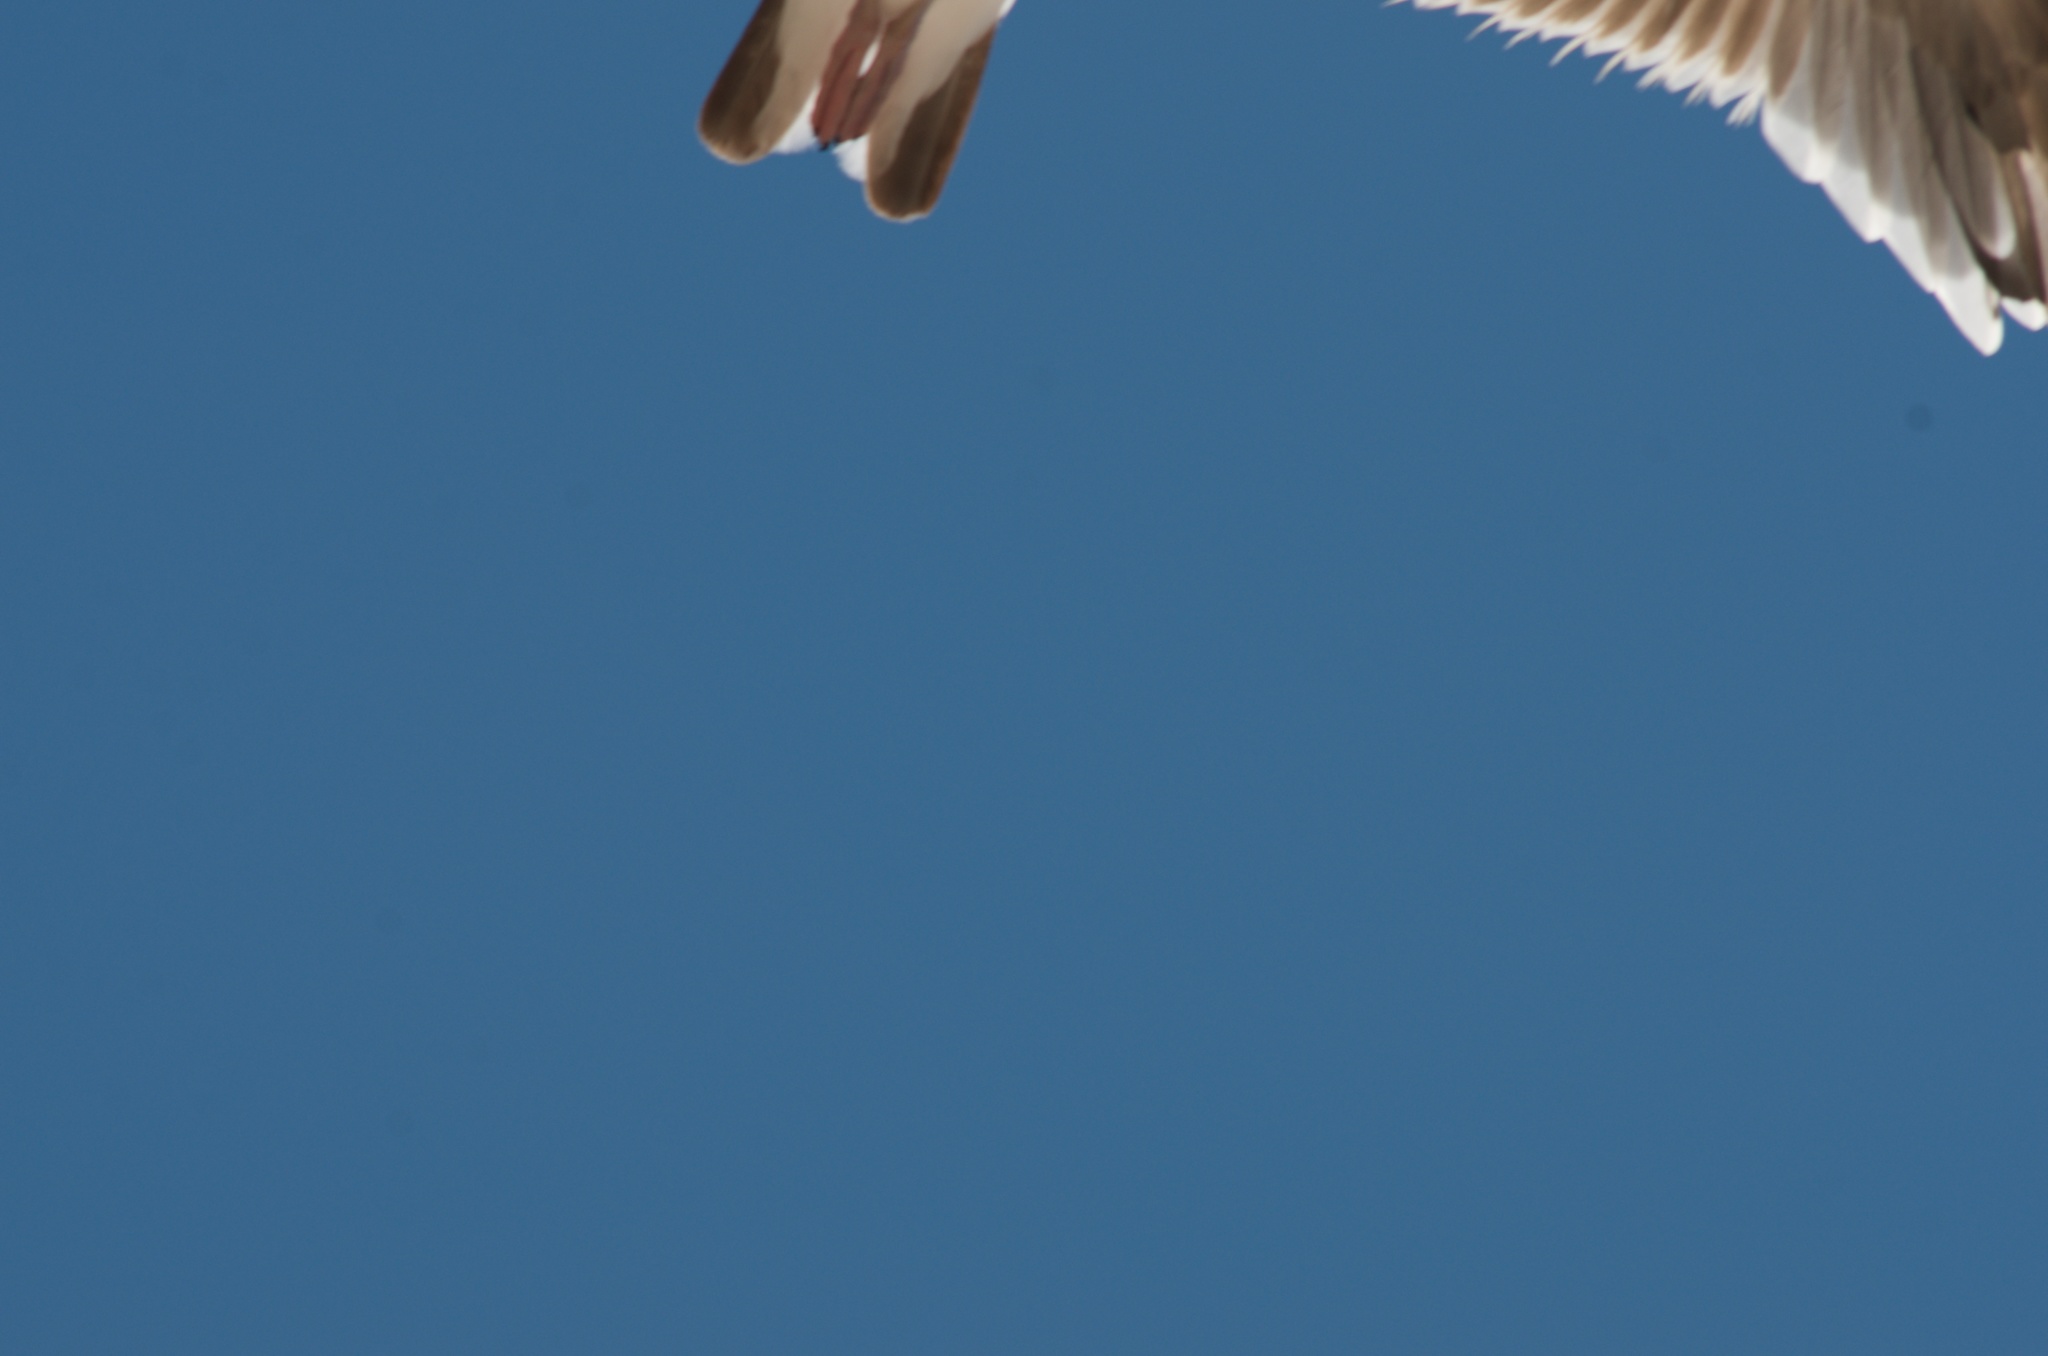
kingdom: Animalia
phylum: Chordata
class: Aves
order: Charadriiformes
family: Laridae
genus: Larus
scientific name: Larus occidentalis
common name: Western gull
